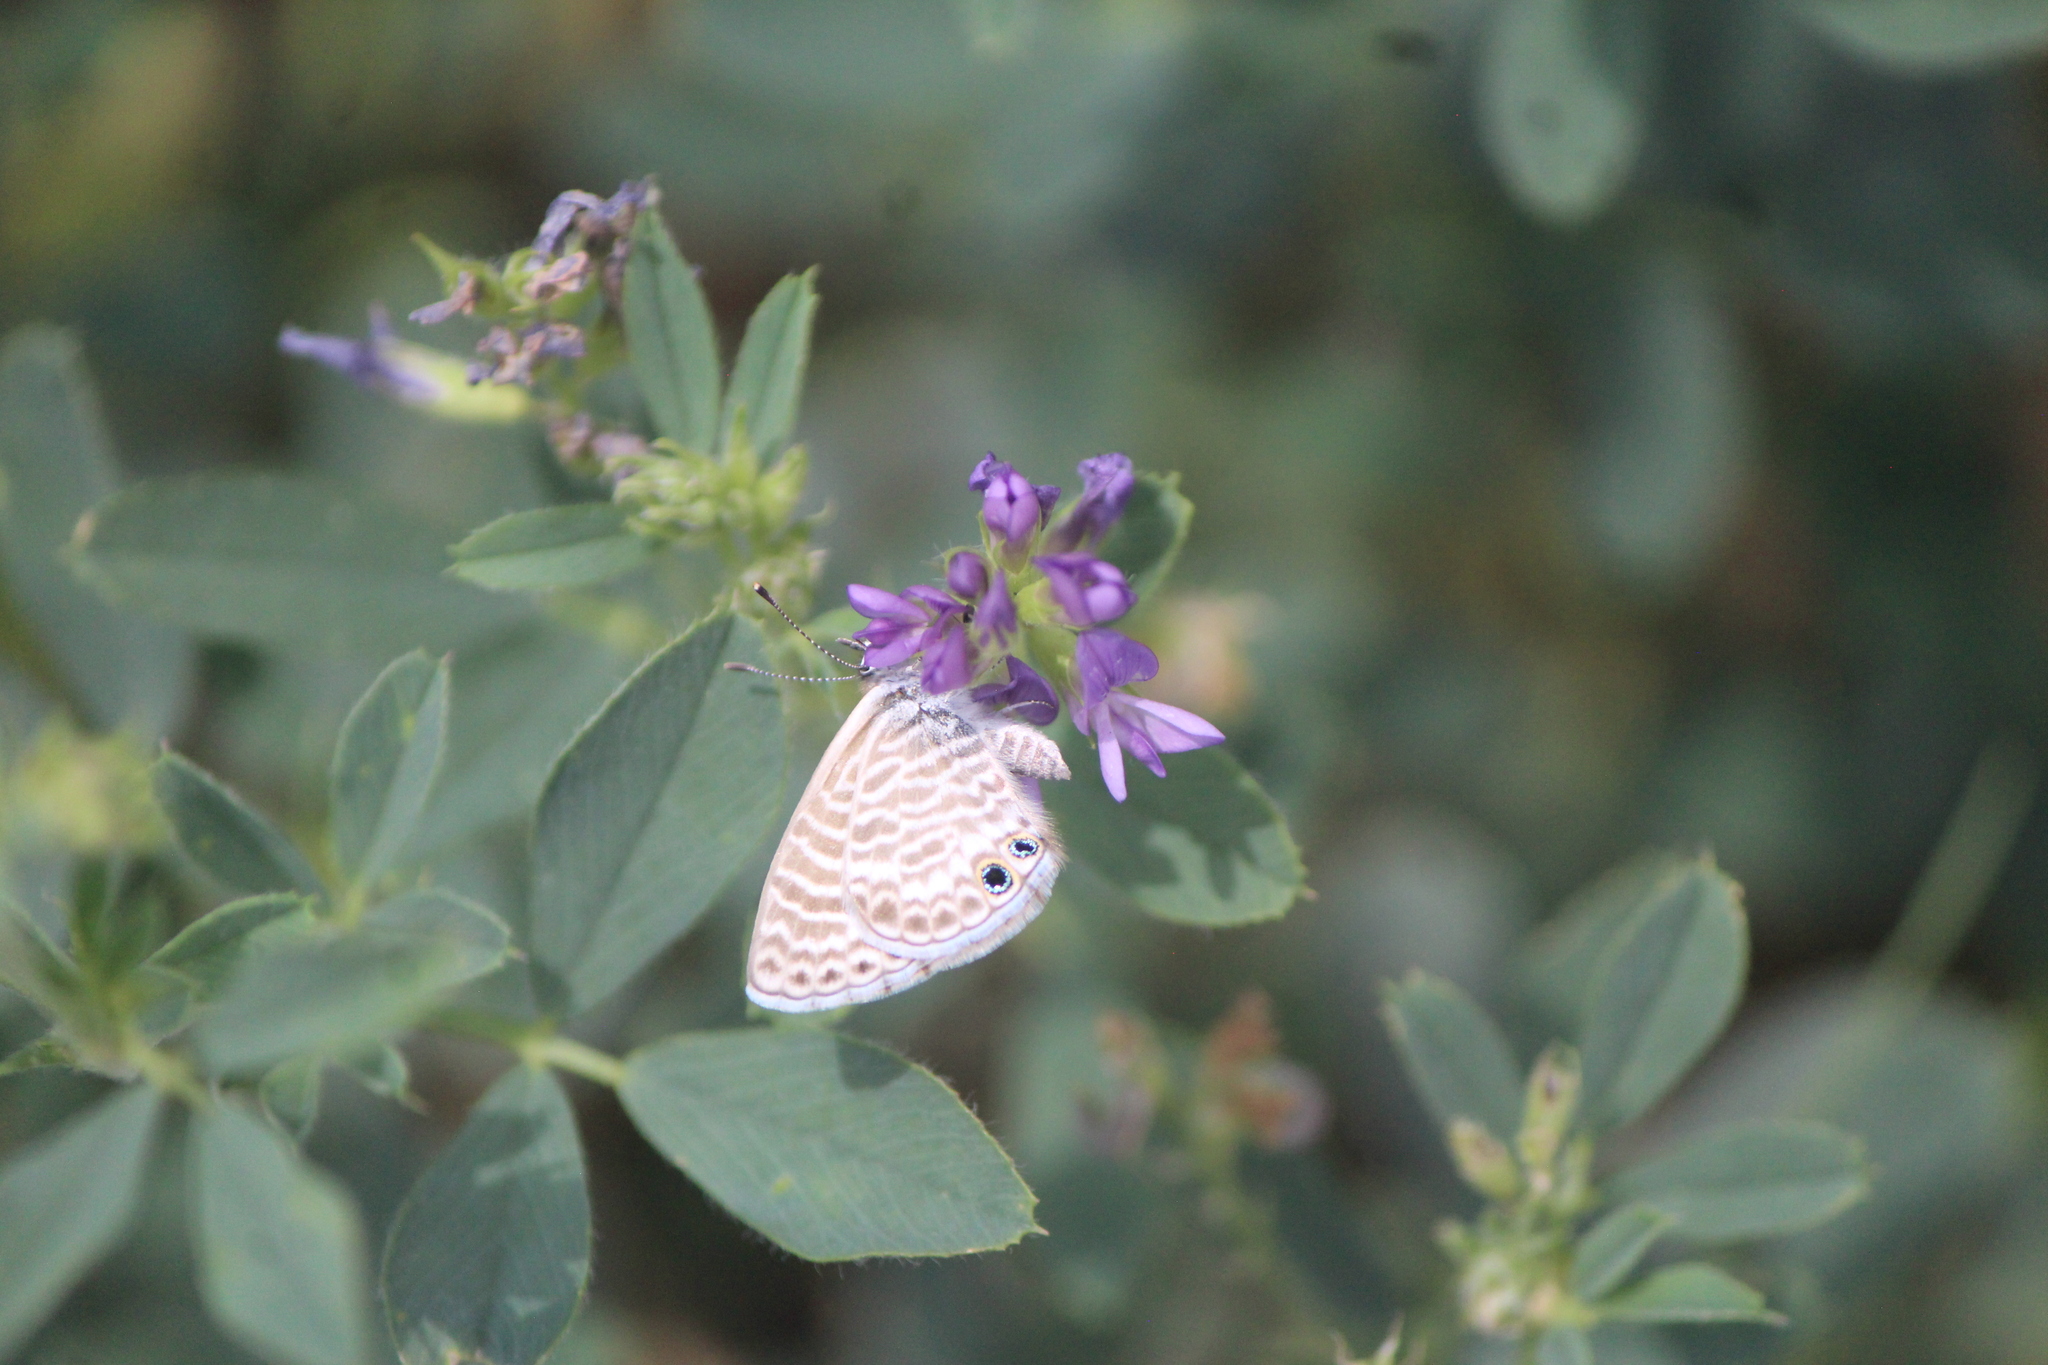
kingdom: Animalia
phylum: Arthropoda
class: Insecta
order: Lepidoptera
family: Lycaenidae
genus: Leptotes
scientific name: Leptotes marina
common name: Marine blue
